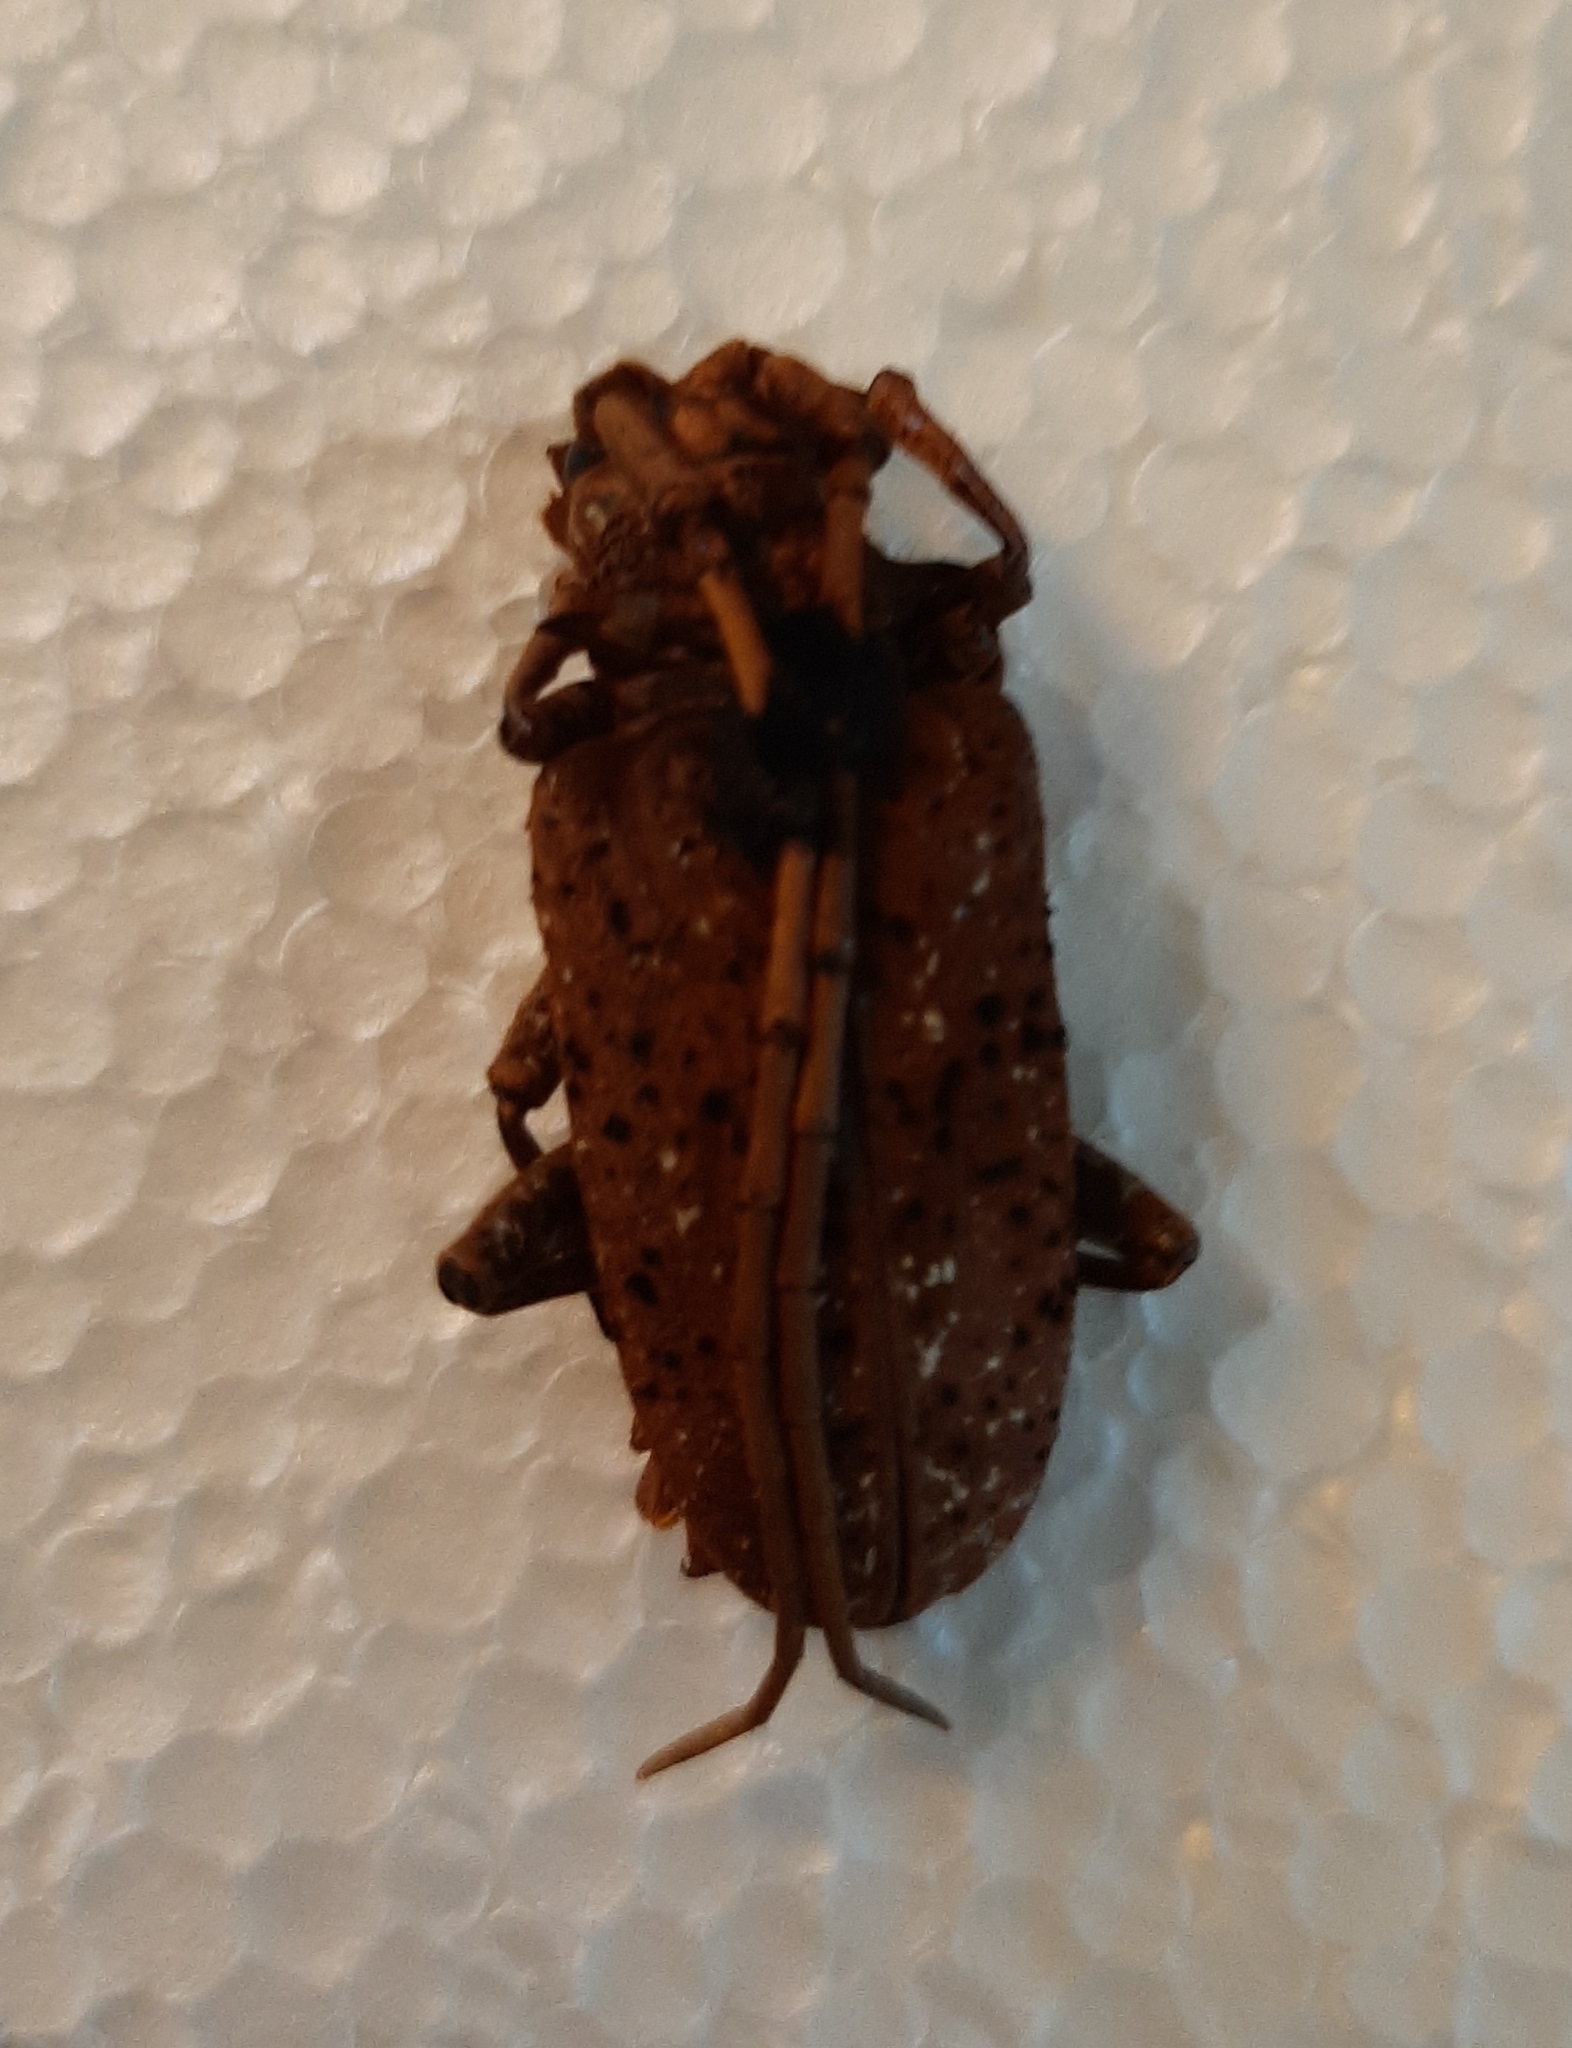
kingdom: Animalia
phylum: Arthropoda
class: Insecta
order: Coleoptera
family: Cerambycidae
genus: Aristobia
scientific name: Aristobia freneyi
